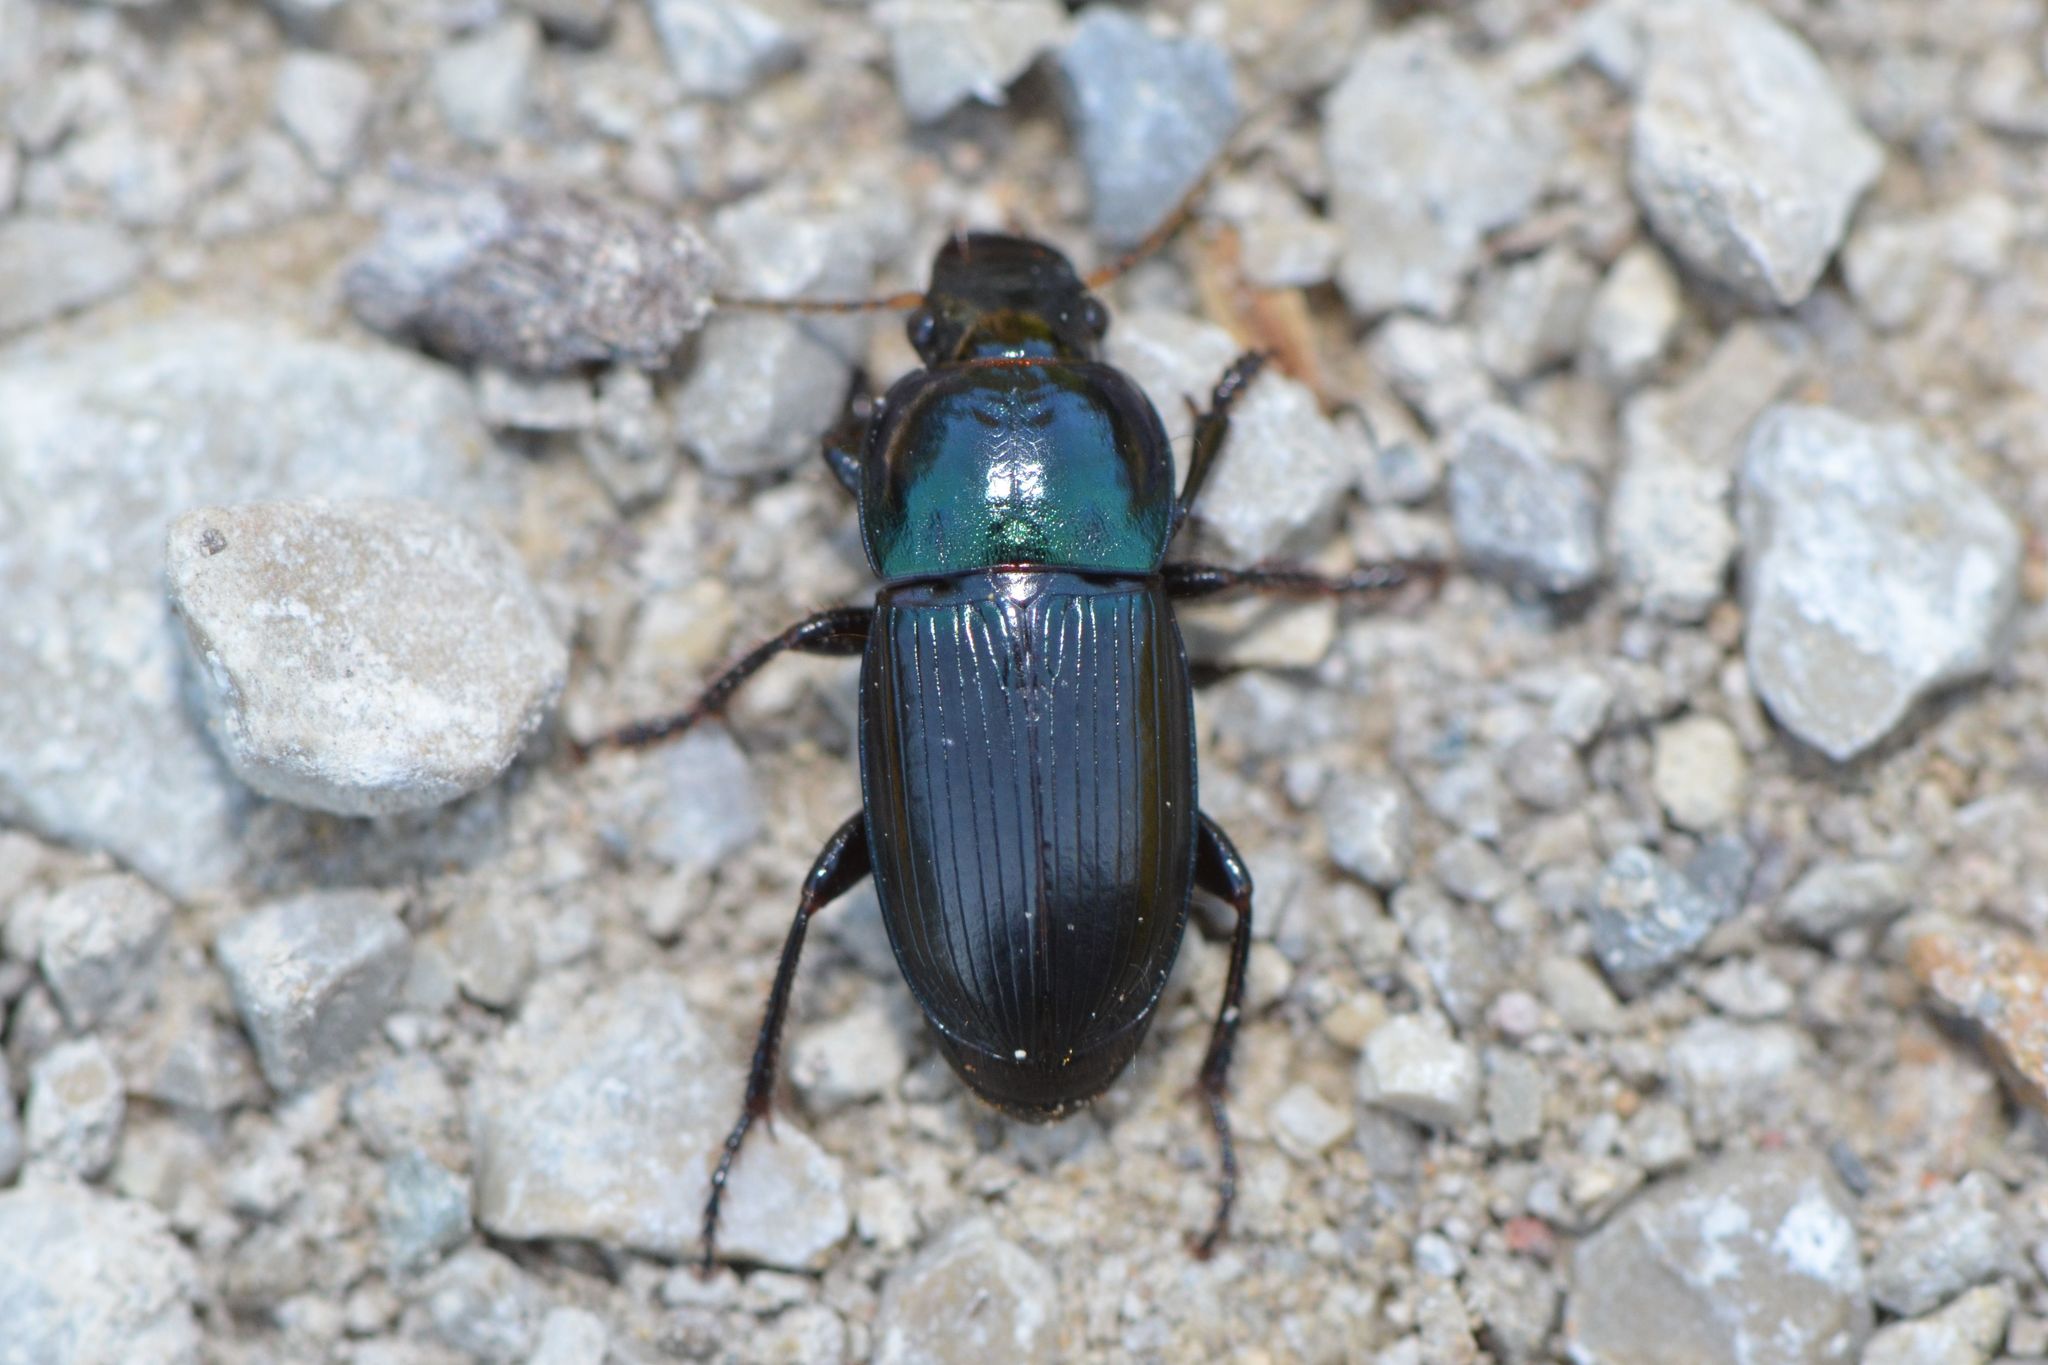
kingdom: Animalia
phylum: Arthropoda
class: Insecta
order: Coleoptera
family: Carabidae
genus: Harpalus
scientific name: Harpalus dimidiatus
